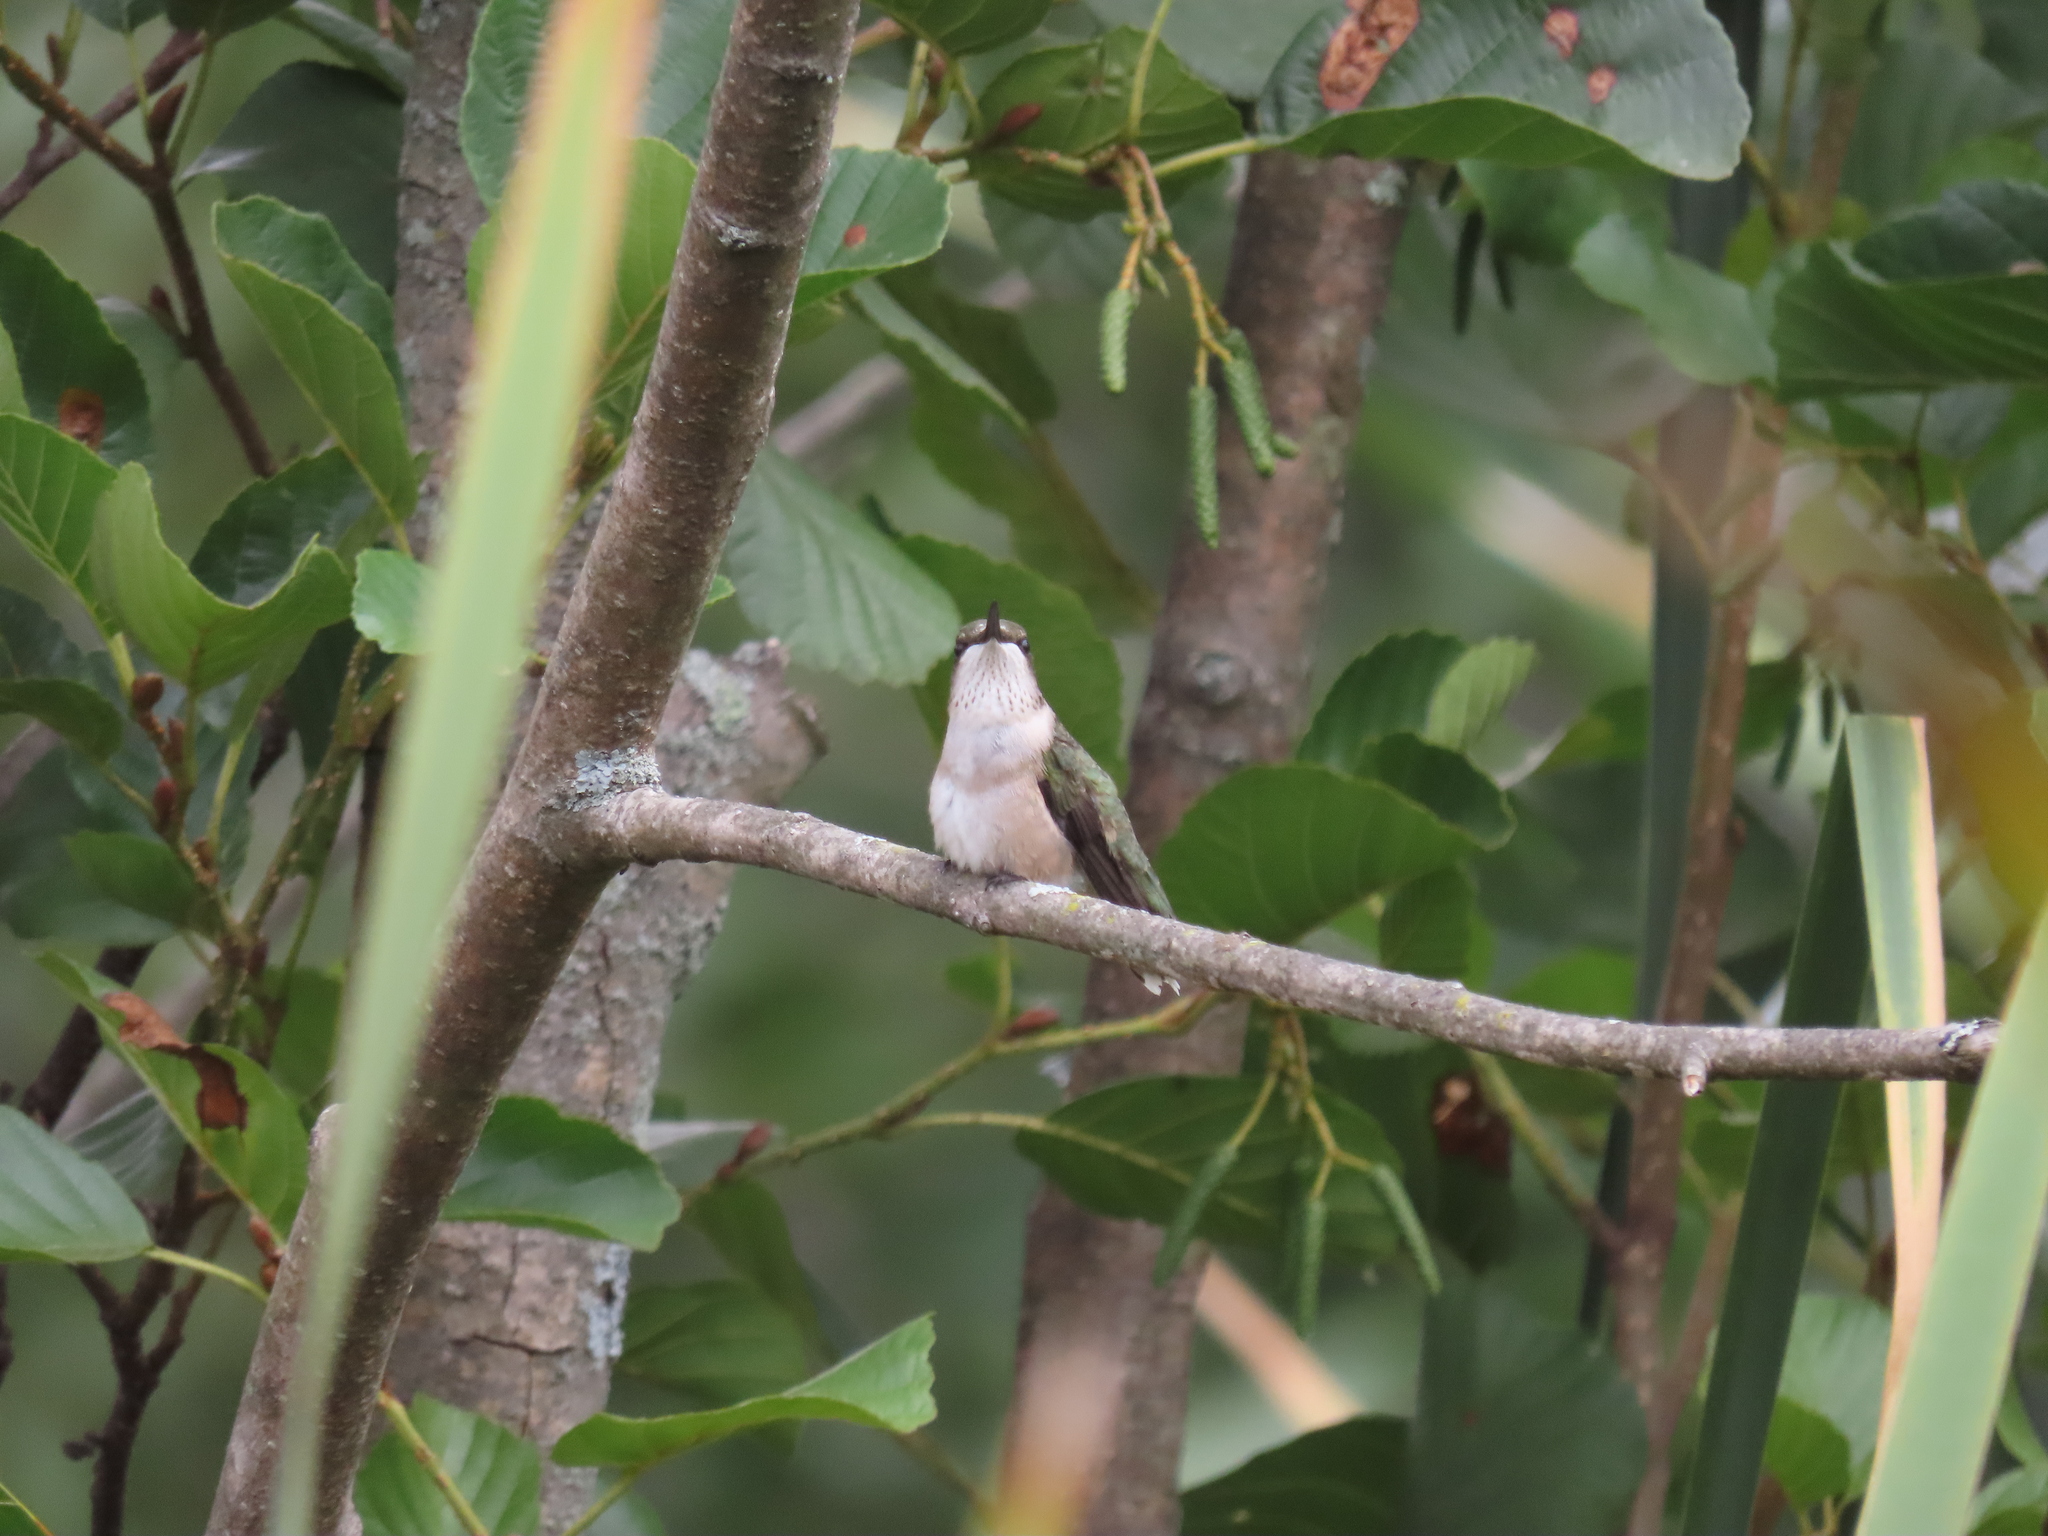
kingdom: Animalia
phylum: Chordata
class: Aves
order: Apodiformes
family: Trochilidae
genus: Archilochus
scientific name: Archilochus colubris
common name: Ruby-throated hummingbird
